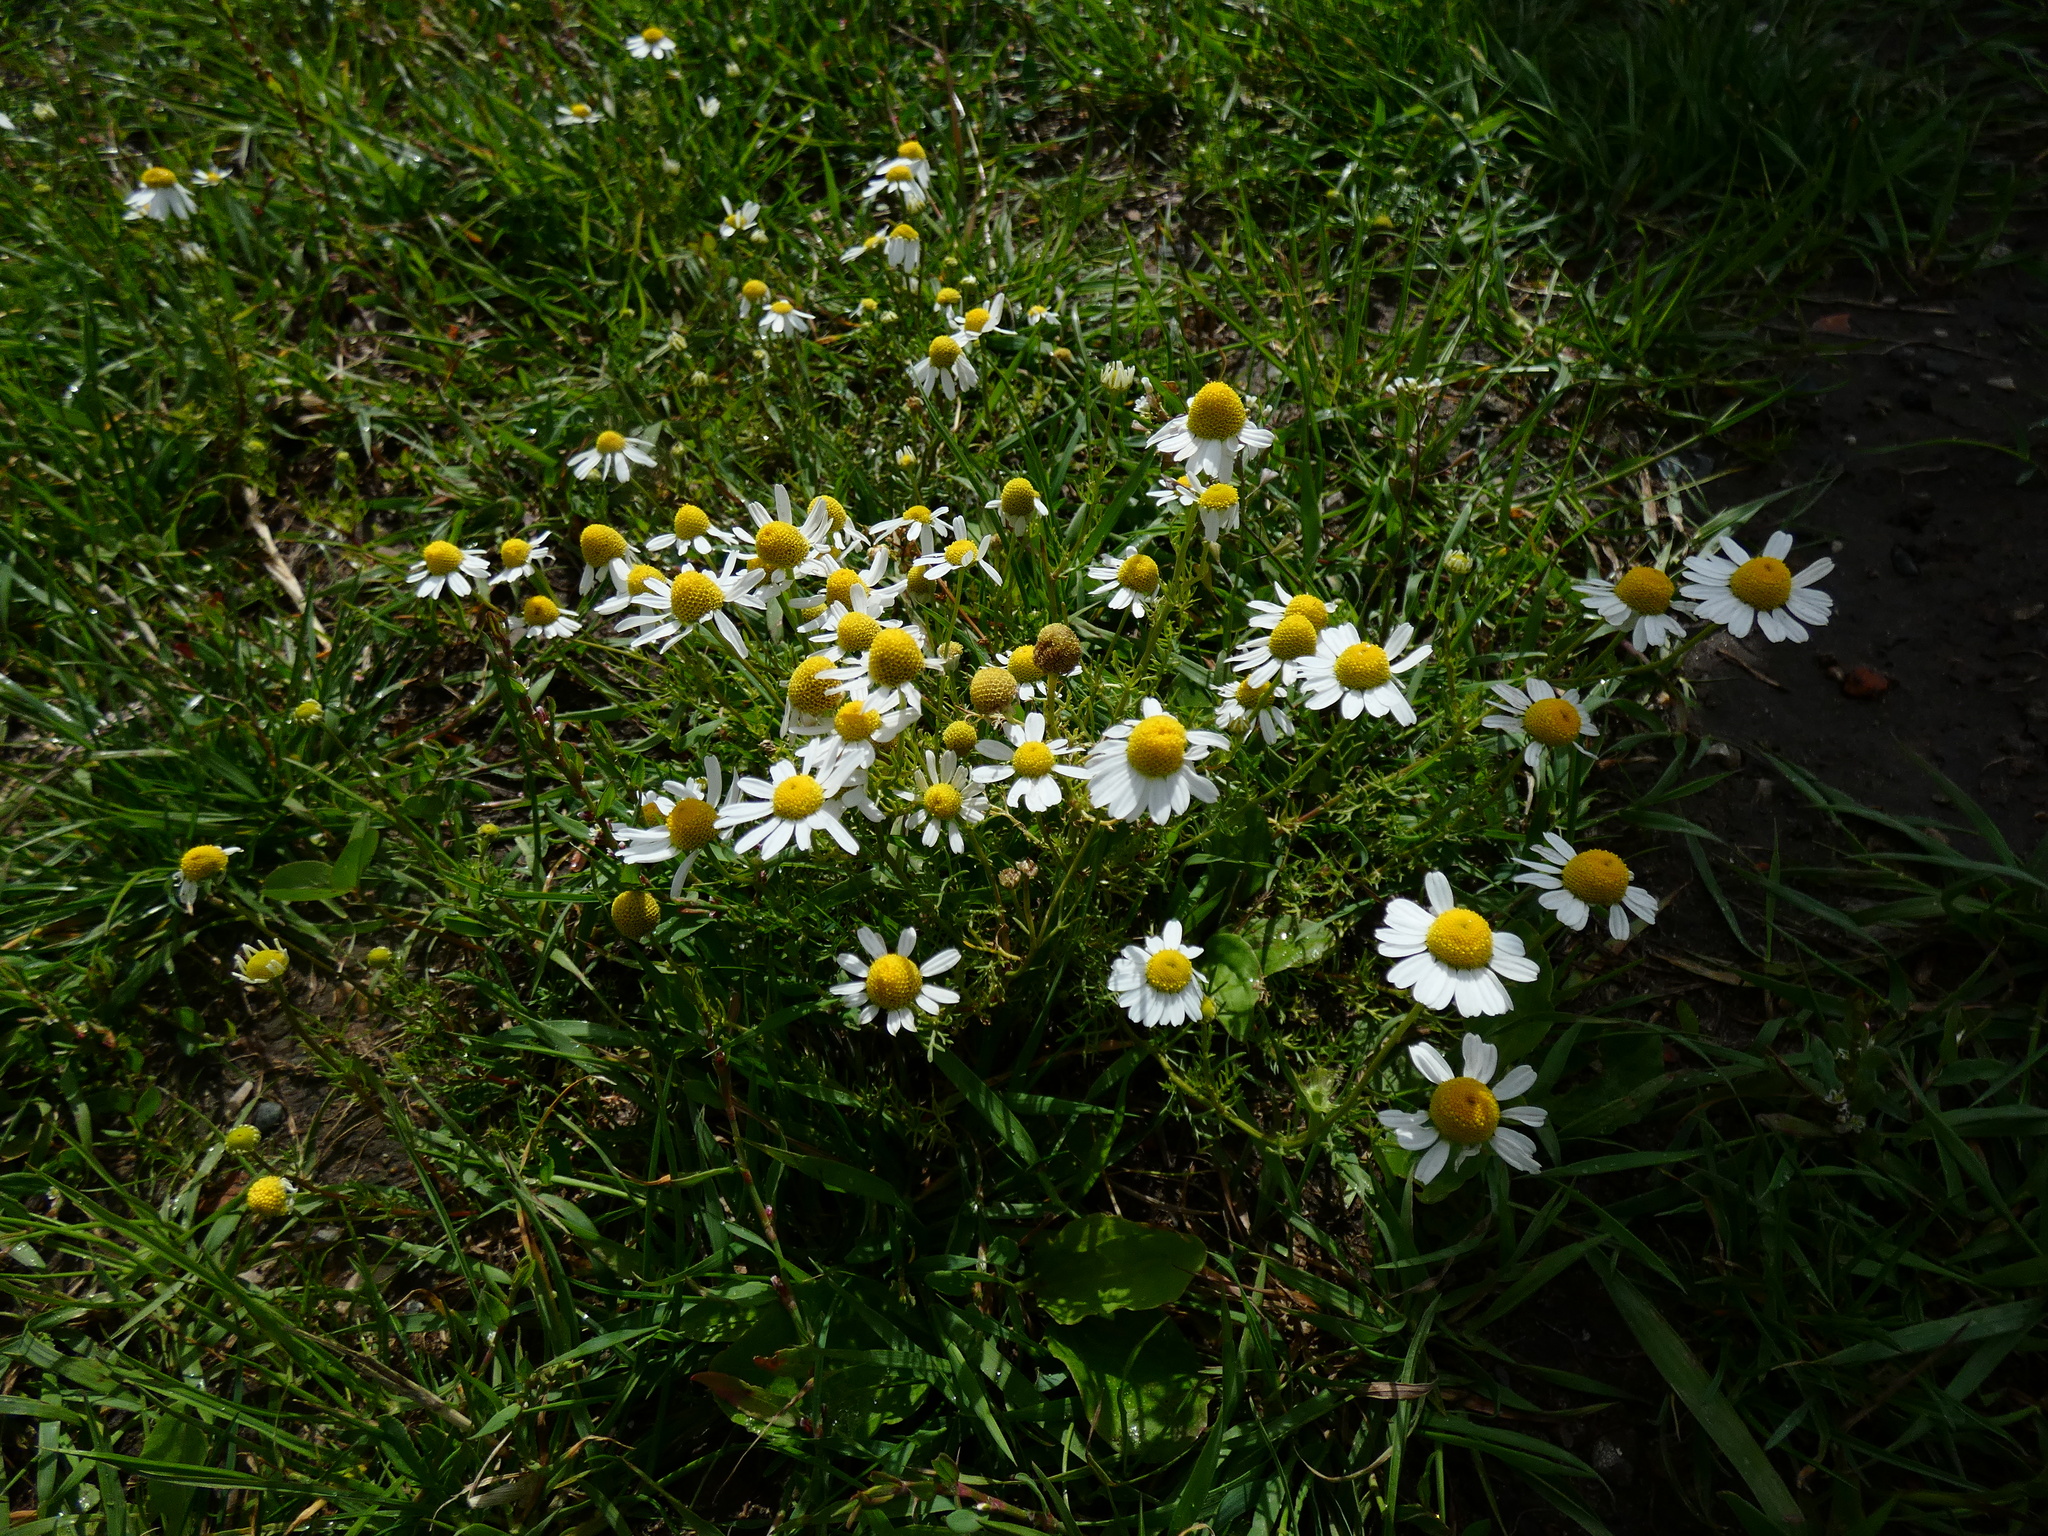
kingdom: Plantae
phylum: Tracheophyta
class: Magnoliopsida
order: Asterales
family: Asteraceae
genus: Matricaria
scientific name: Matricaria chamomilla
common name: Scented mayweed
